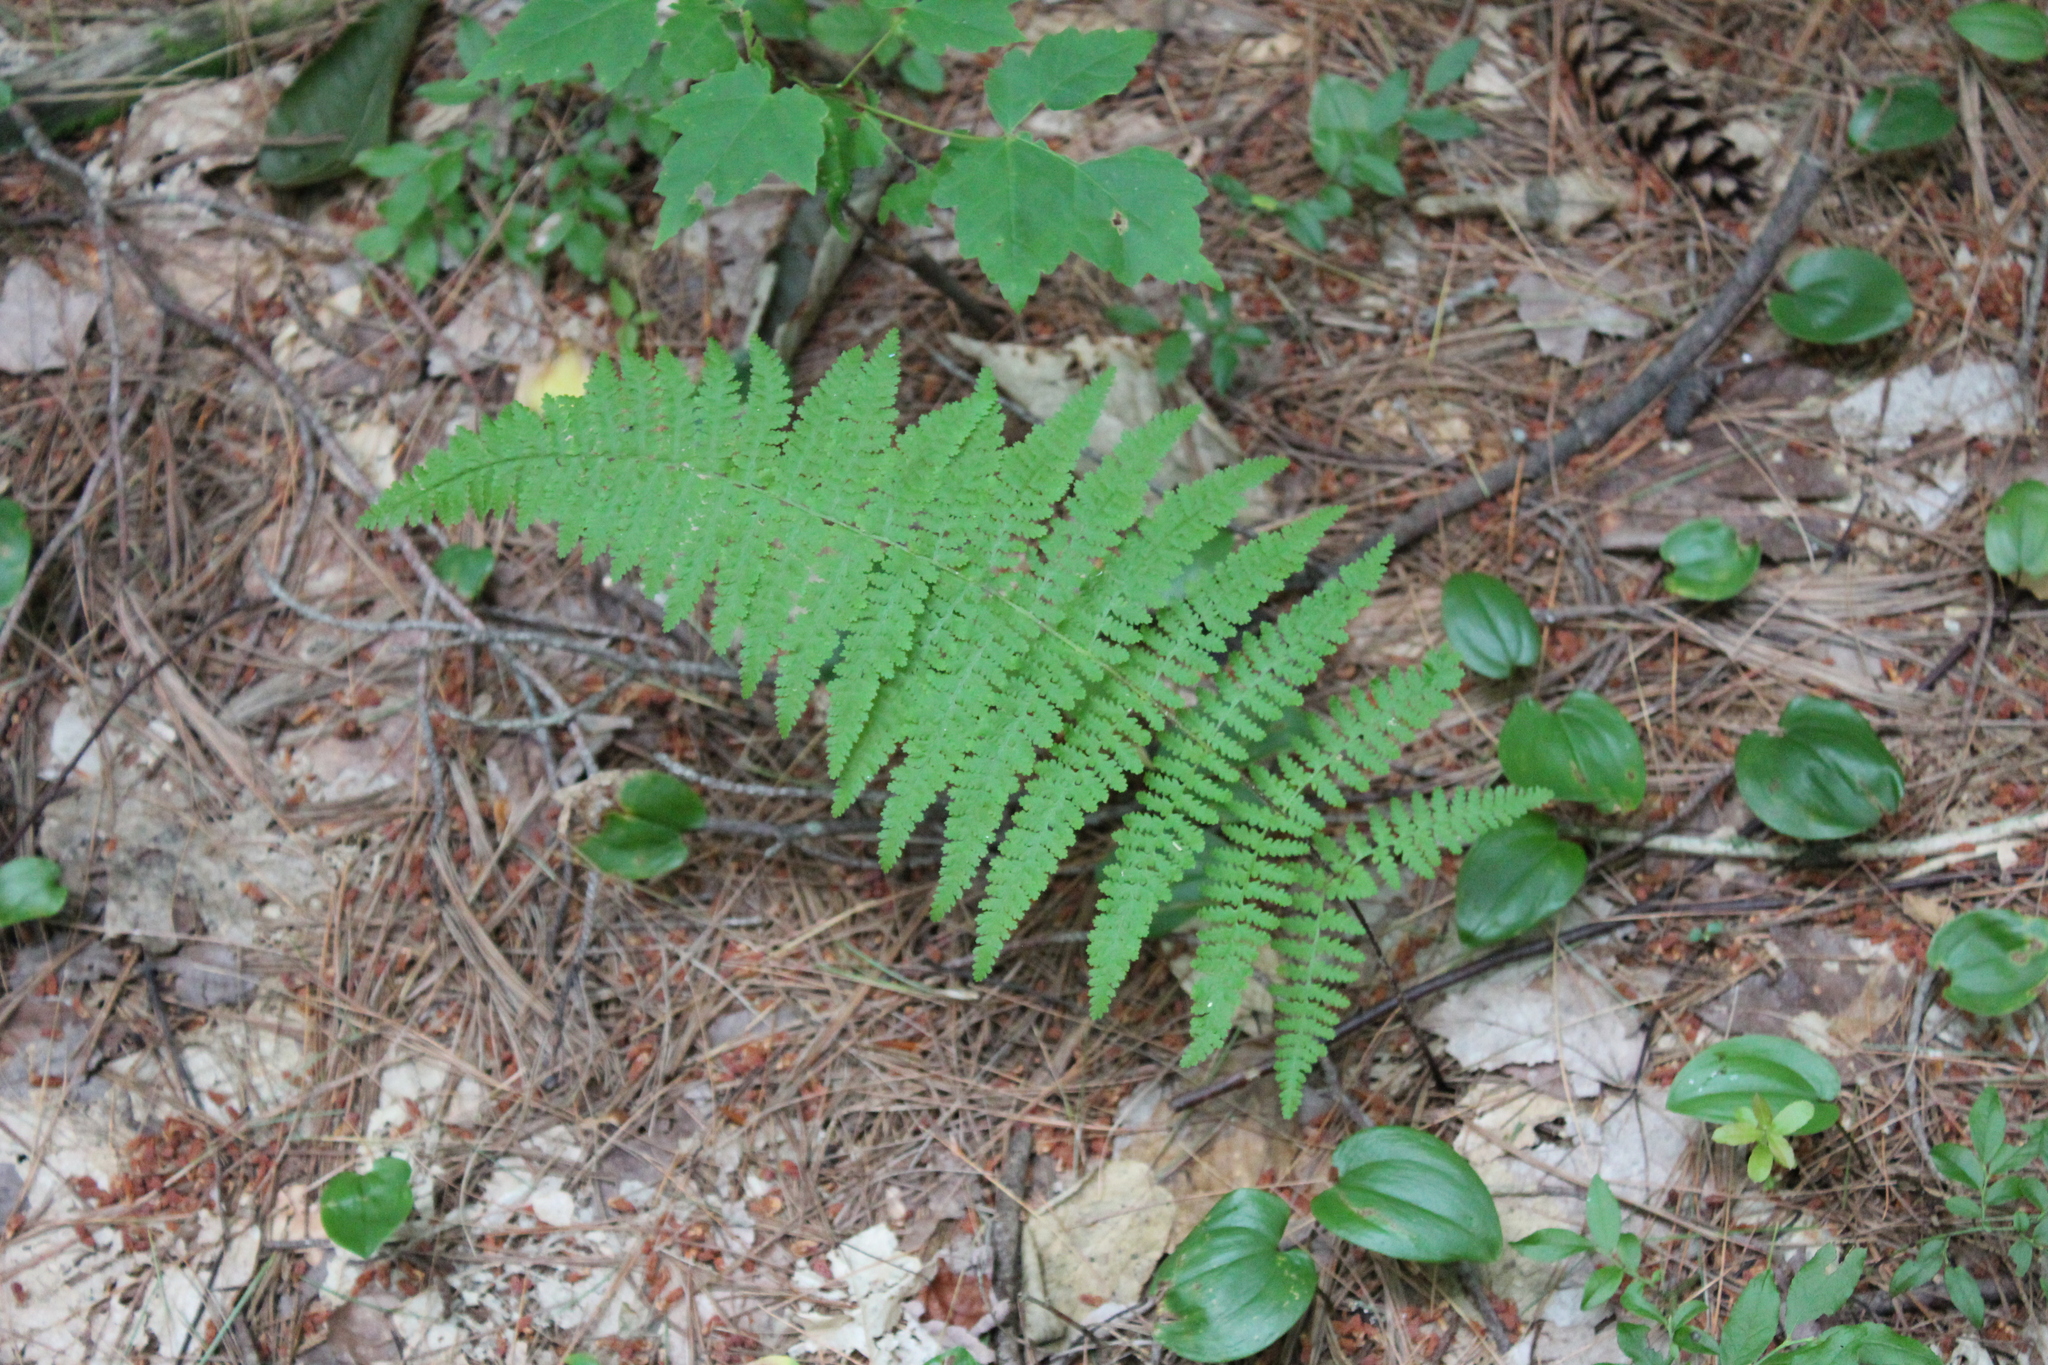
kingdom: Plantae
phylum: Tracheophyta
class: Polypodiopsida
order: Polypodiales
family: Dennstaedtiaceae
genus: Sitobolium
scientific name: Sitobolium punctilobum
